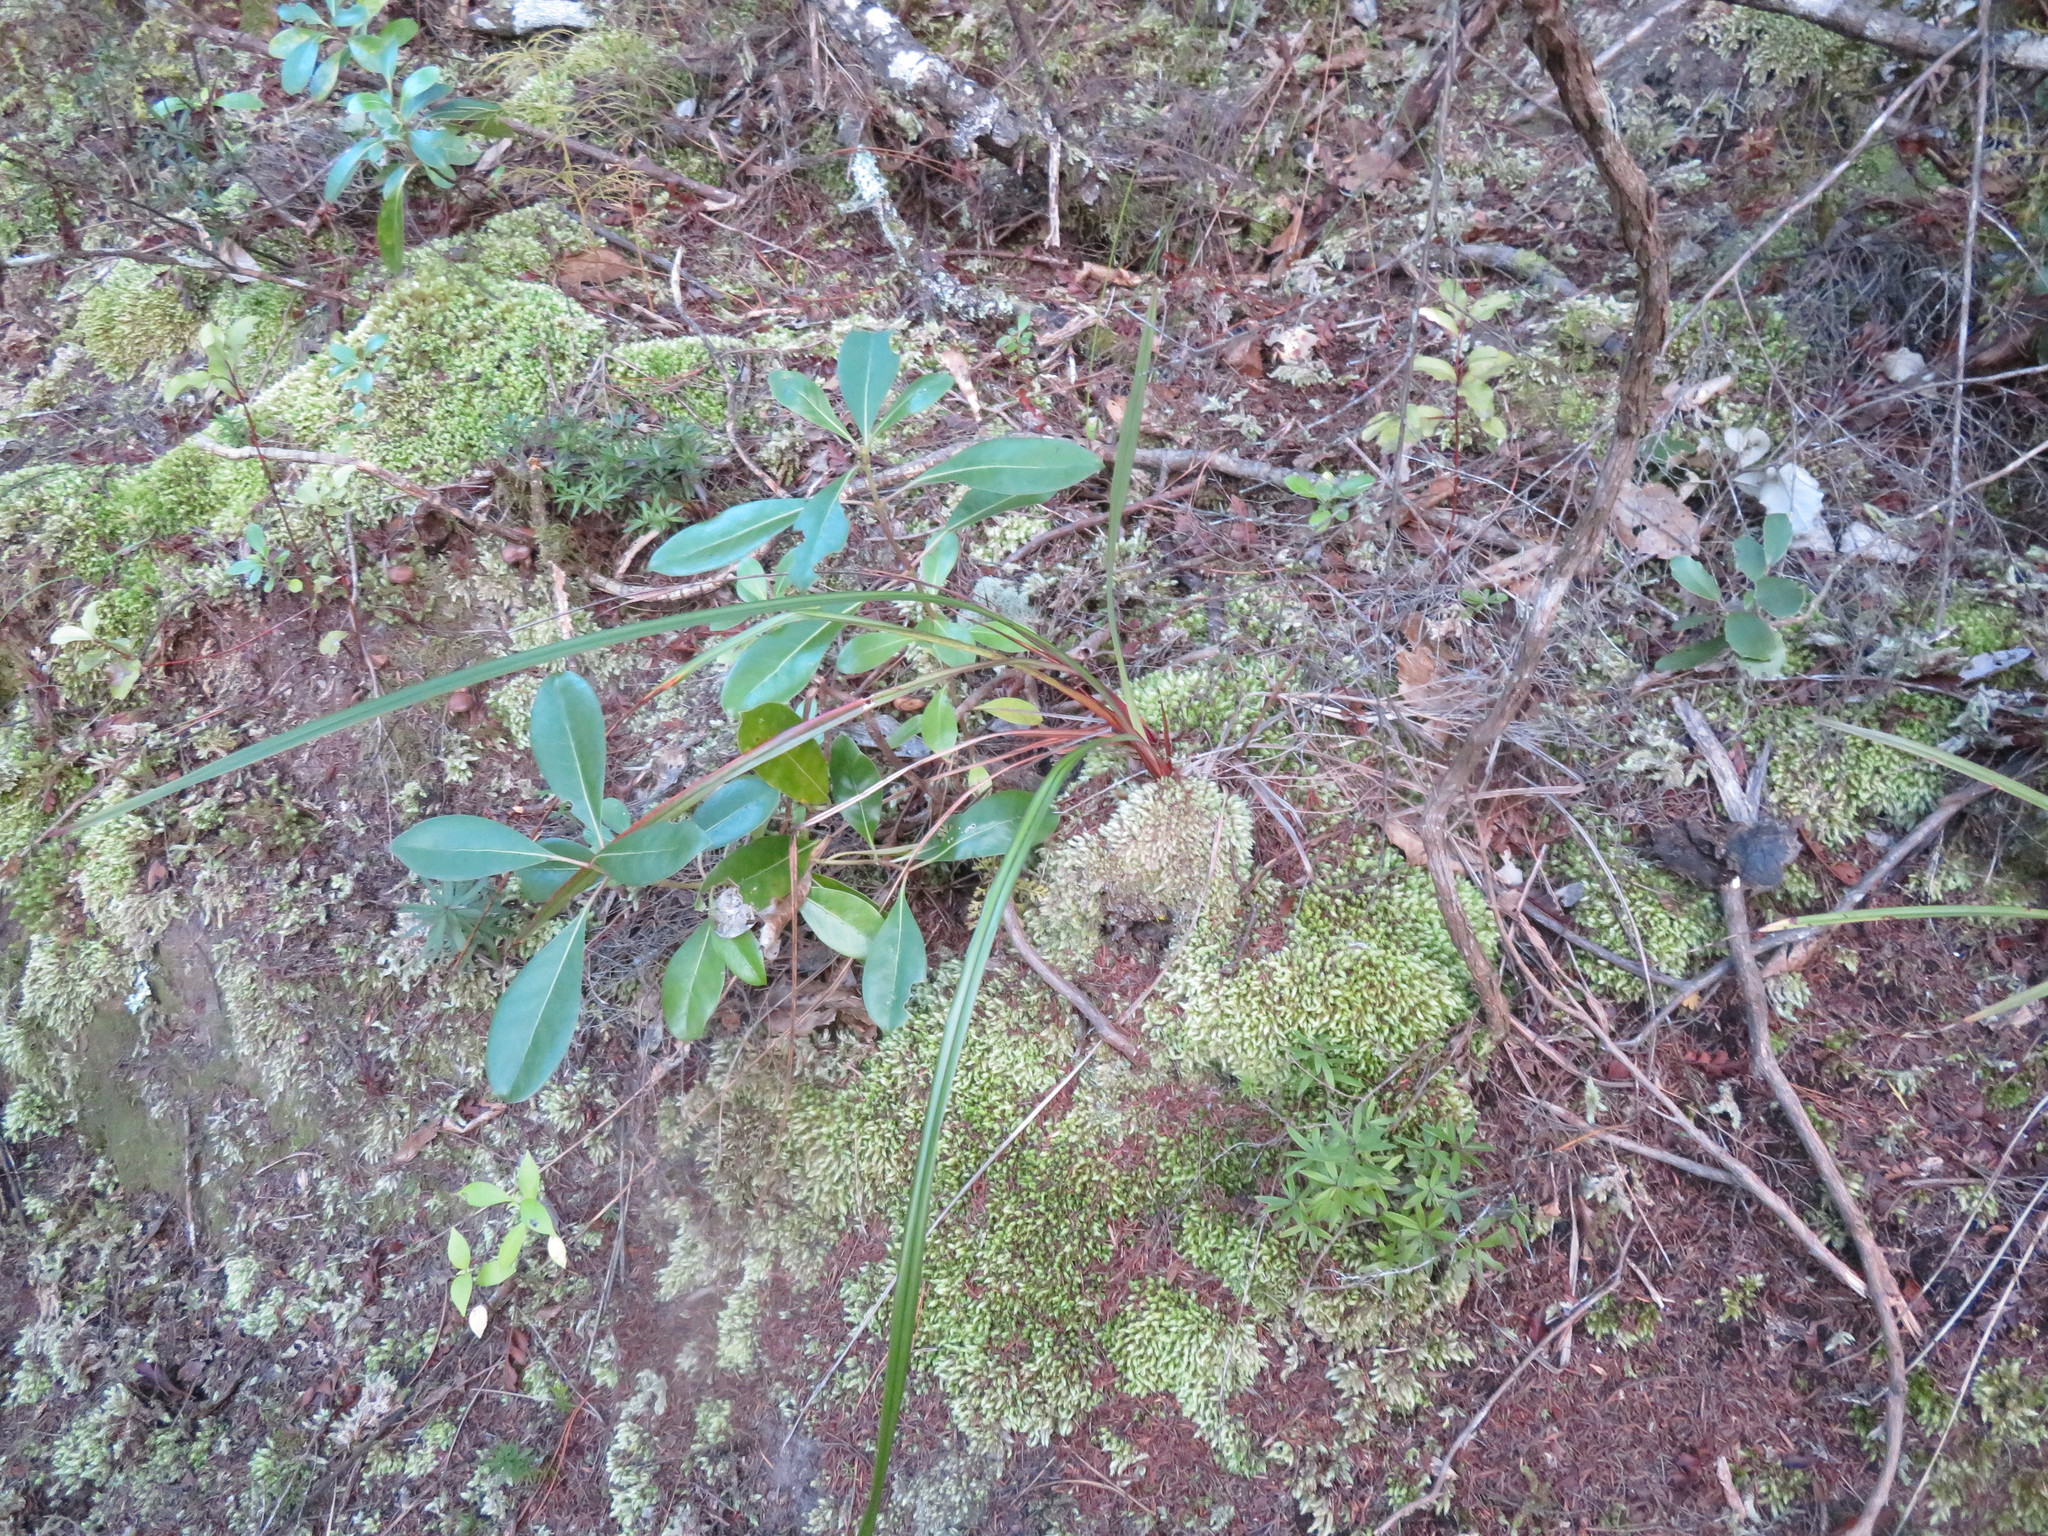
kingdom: Plantae
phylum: Tracheophyta
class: Magnoliopsida
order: Gentianales
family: Rubiaceae
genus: Coprosma
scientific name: Coprosma lucida
